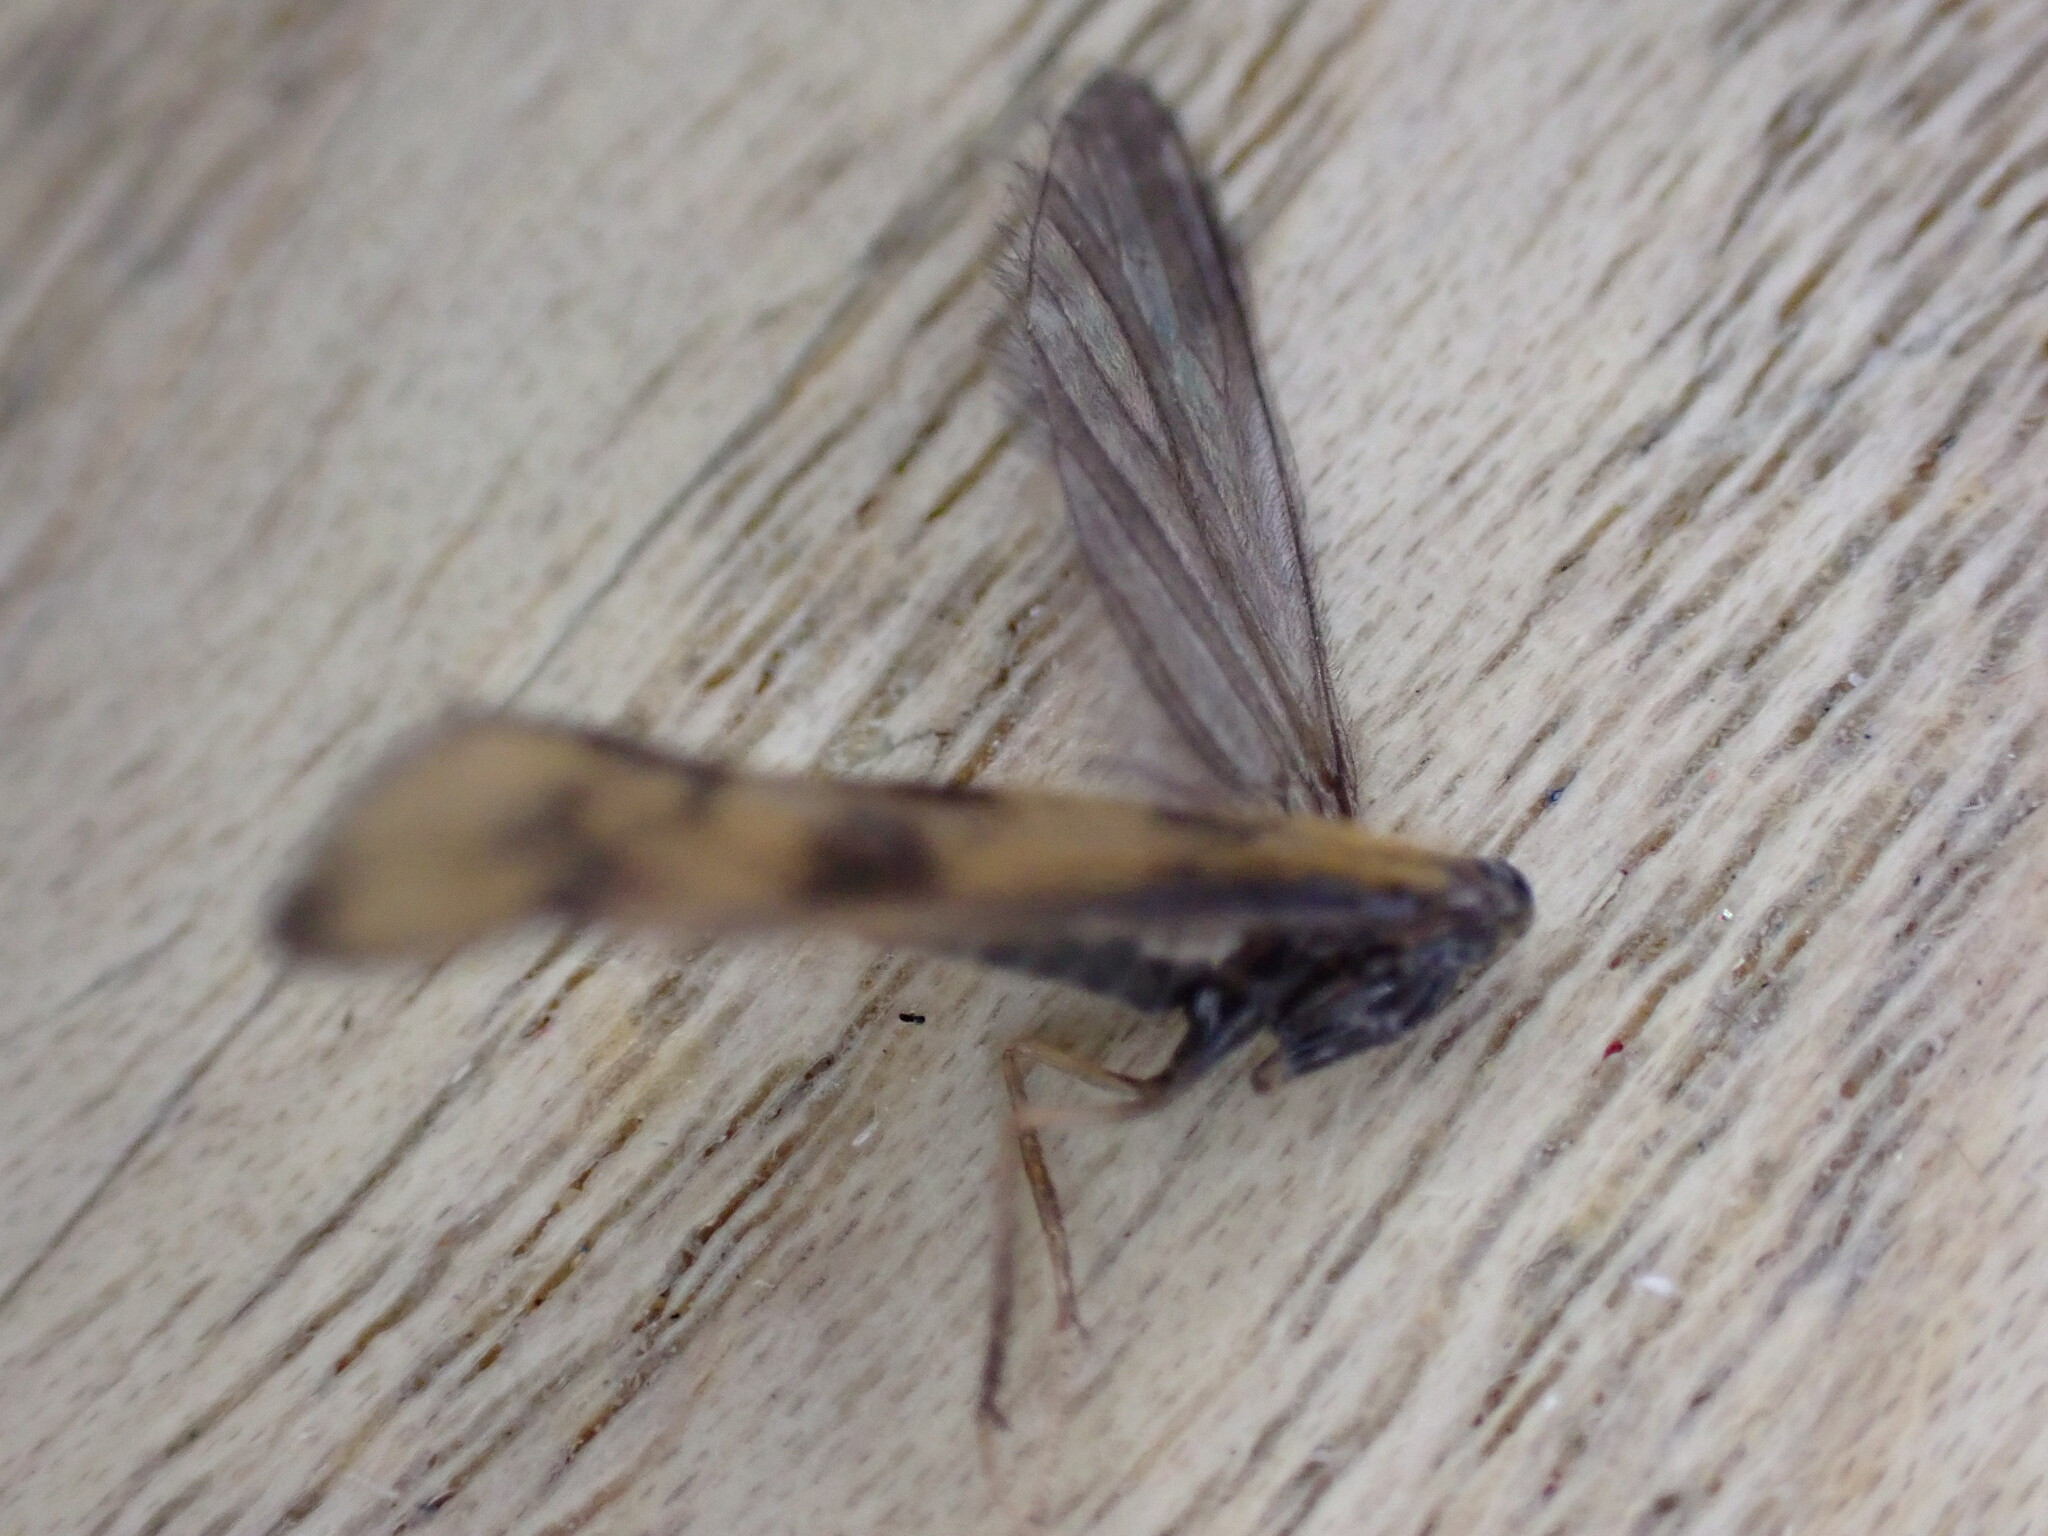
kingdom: Animalia
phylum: Arthropoda
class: Insecta
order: Trichoptera
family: Leptoceridae
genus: Mystacides
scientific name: Mystacides longicornis
